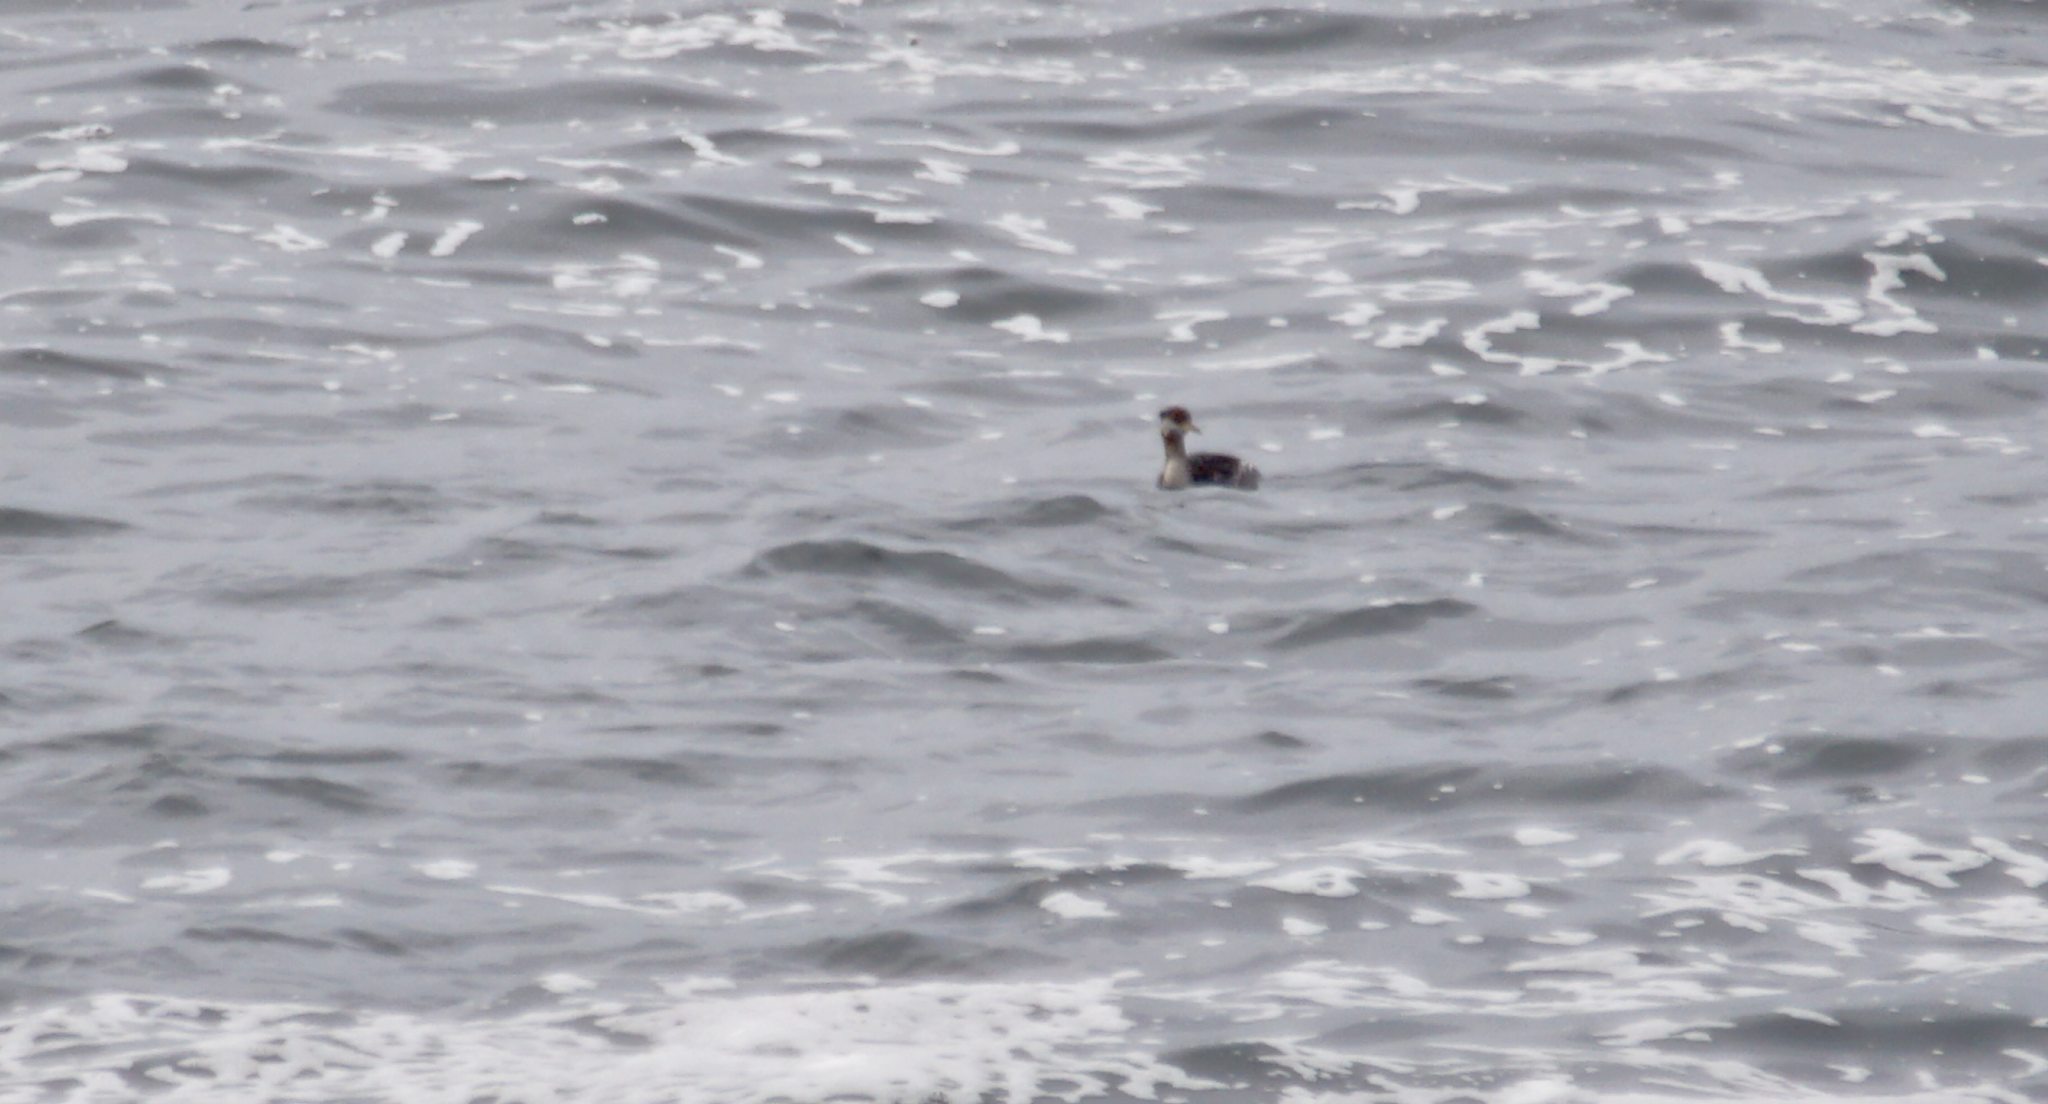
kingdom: Animalia
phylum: Chordata
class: Aves
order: Podicipediformes
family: Podicipedidae
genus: Podiceps
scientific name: Podiceps grisegena
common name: Red-necked grebe
